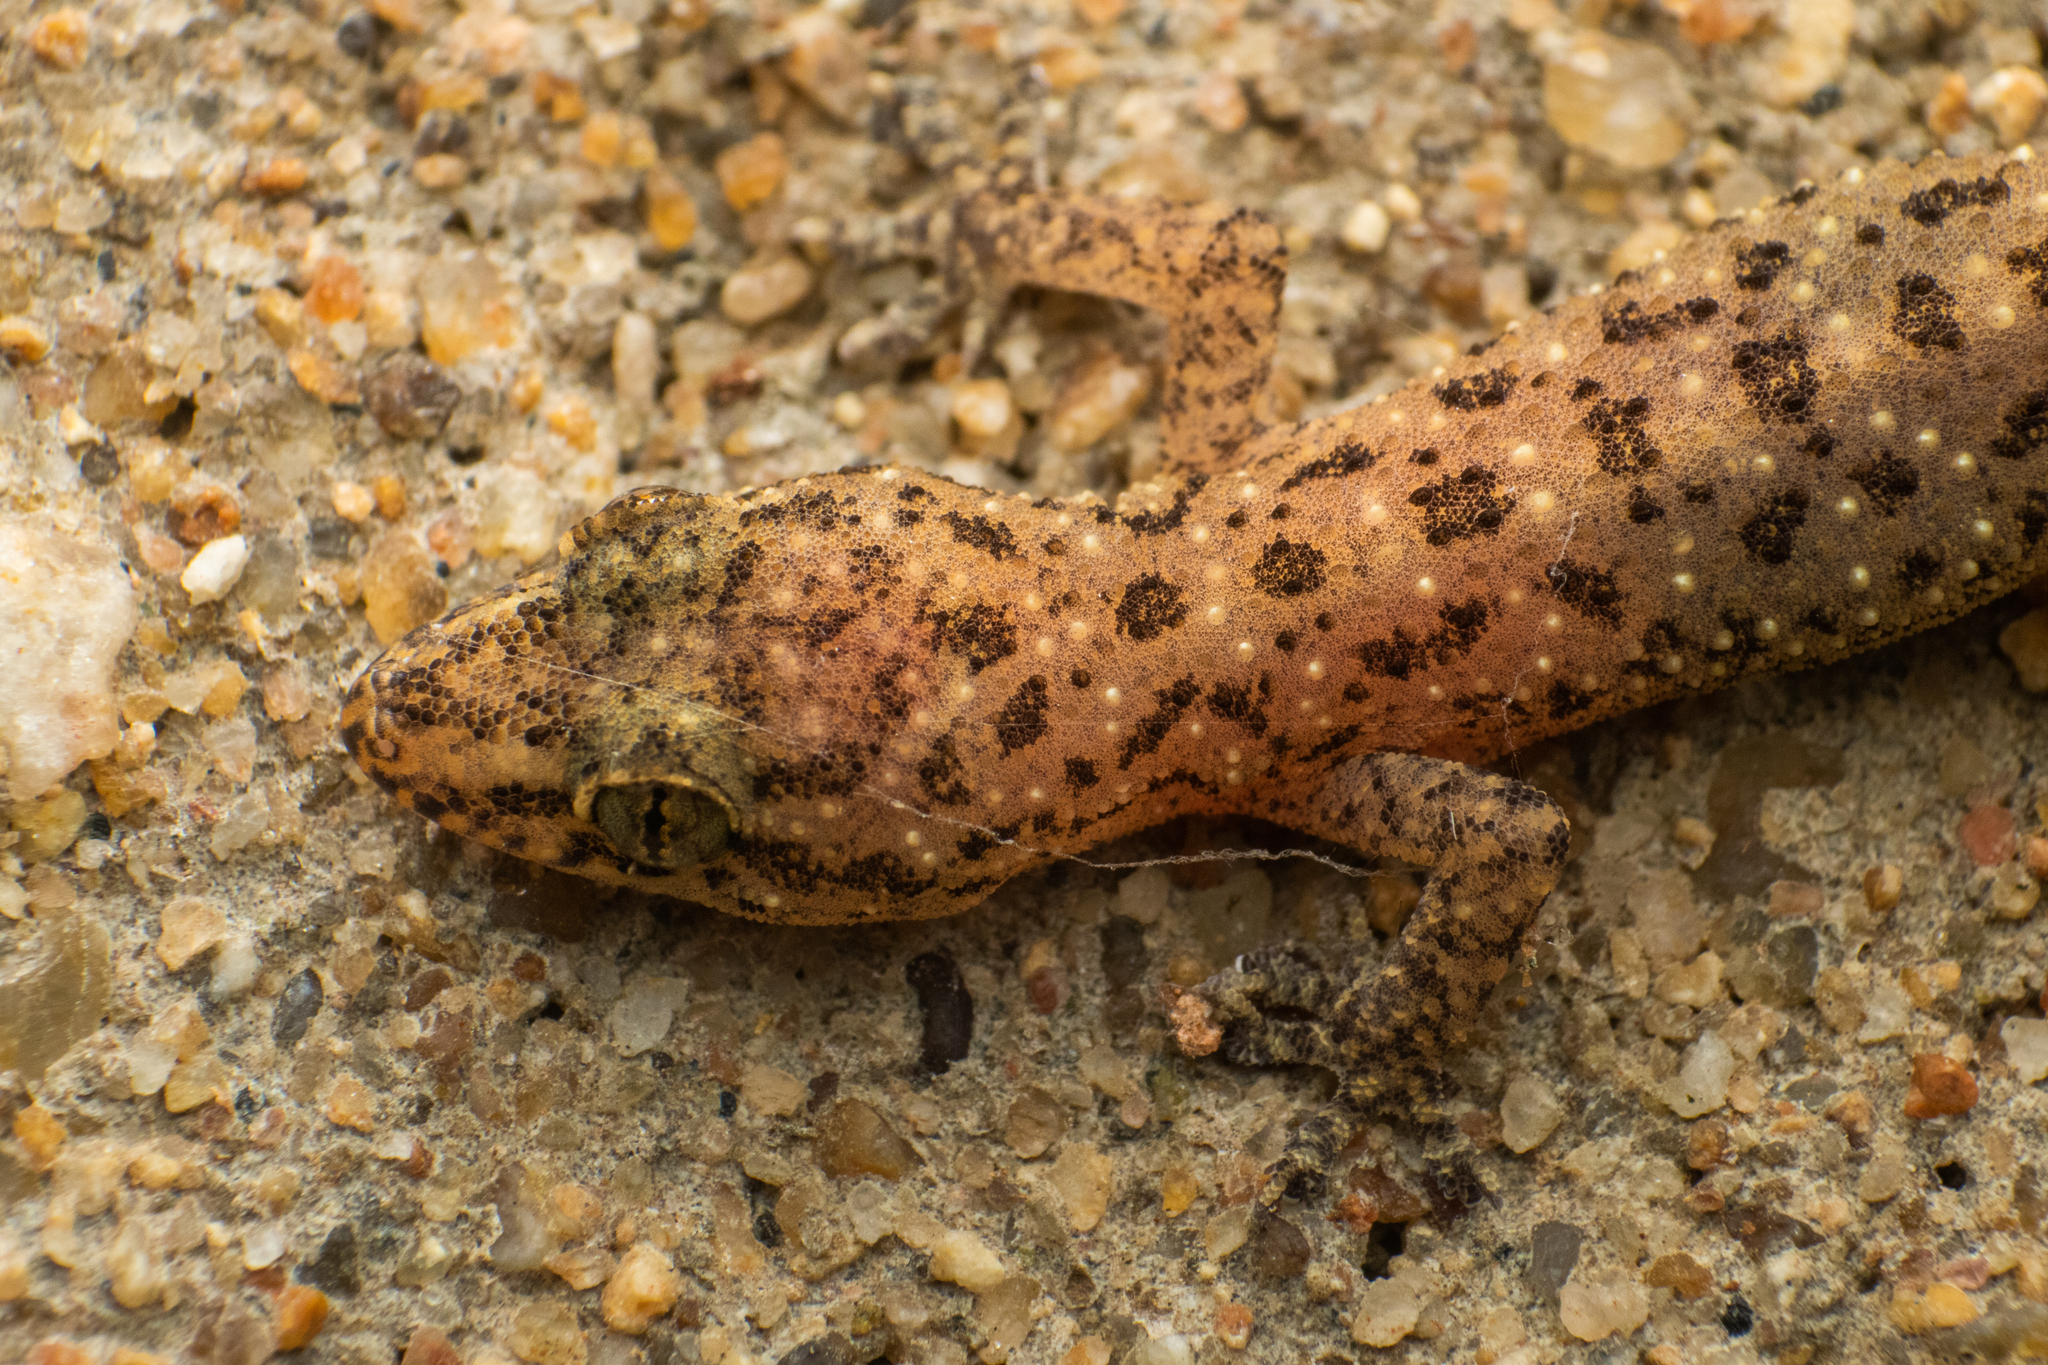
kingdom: Animalia
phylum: Chordata
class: Squamata
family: Gekkonidae
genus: Hemidactylus
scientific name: Hemidactylus parvimaculatus
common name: Spotted house gecko
